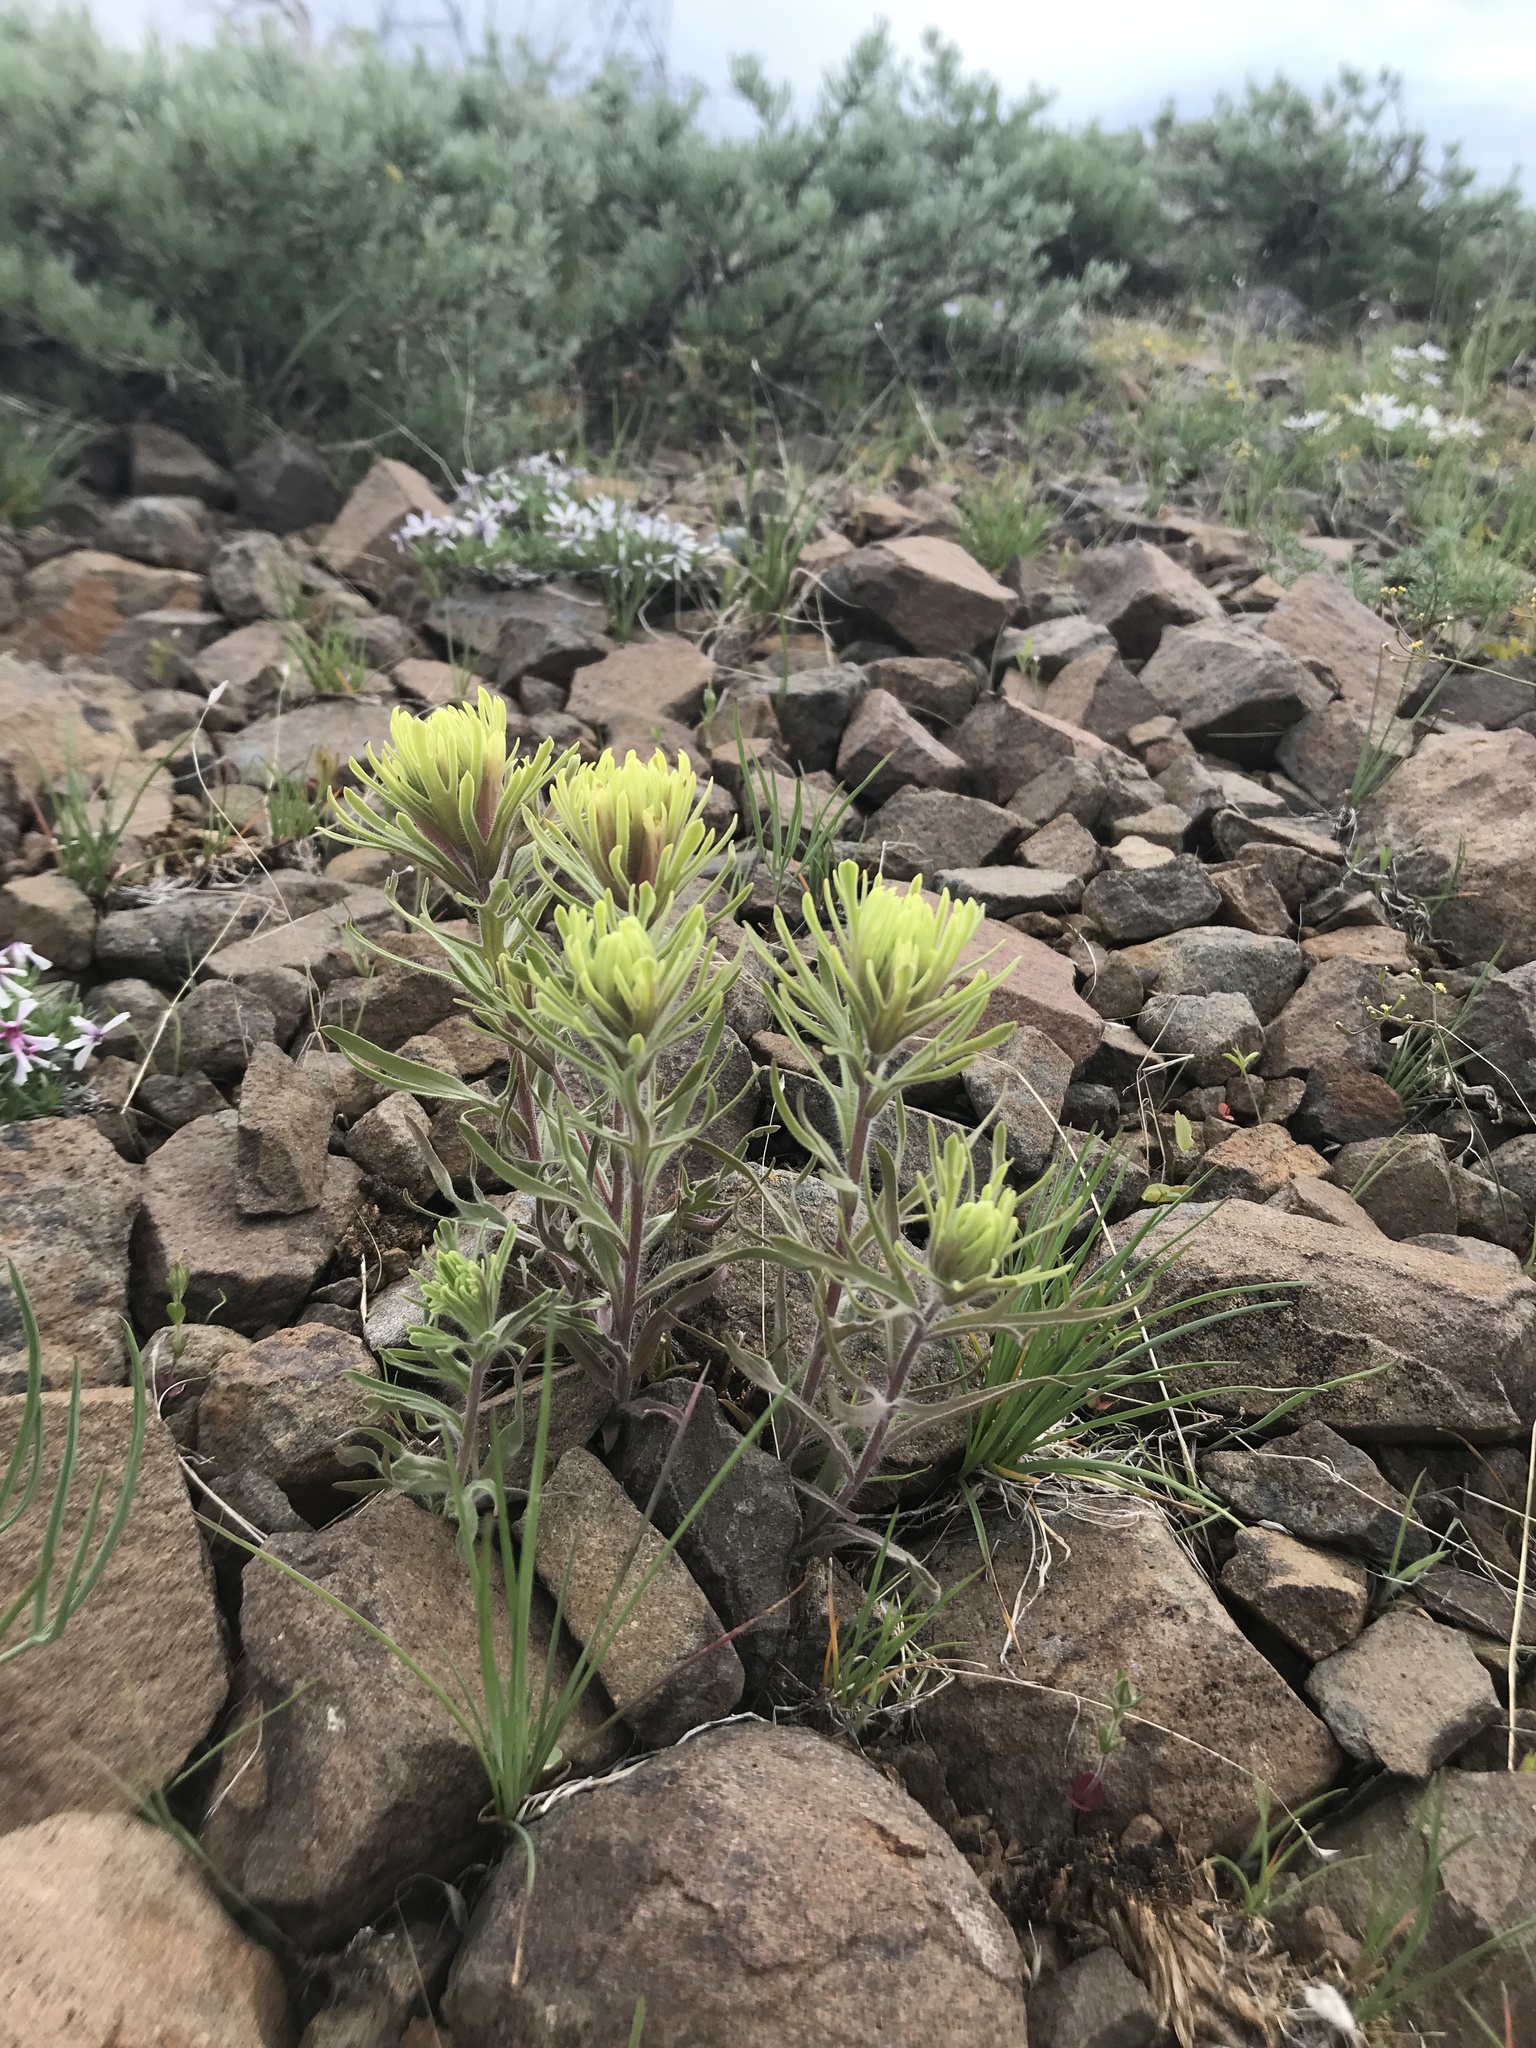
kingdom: Plantae
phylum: Tracheophyta
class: Magnoliopsida
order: Lamiales
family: Orobanchaceae
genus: Castilleja
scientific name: Castilleja thompsonii
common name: Thompson's paintbrush
